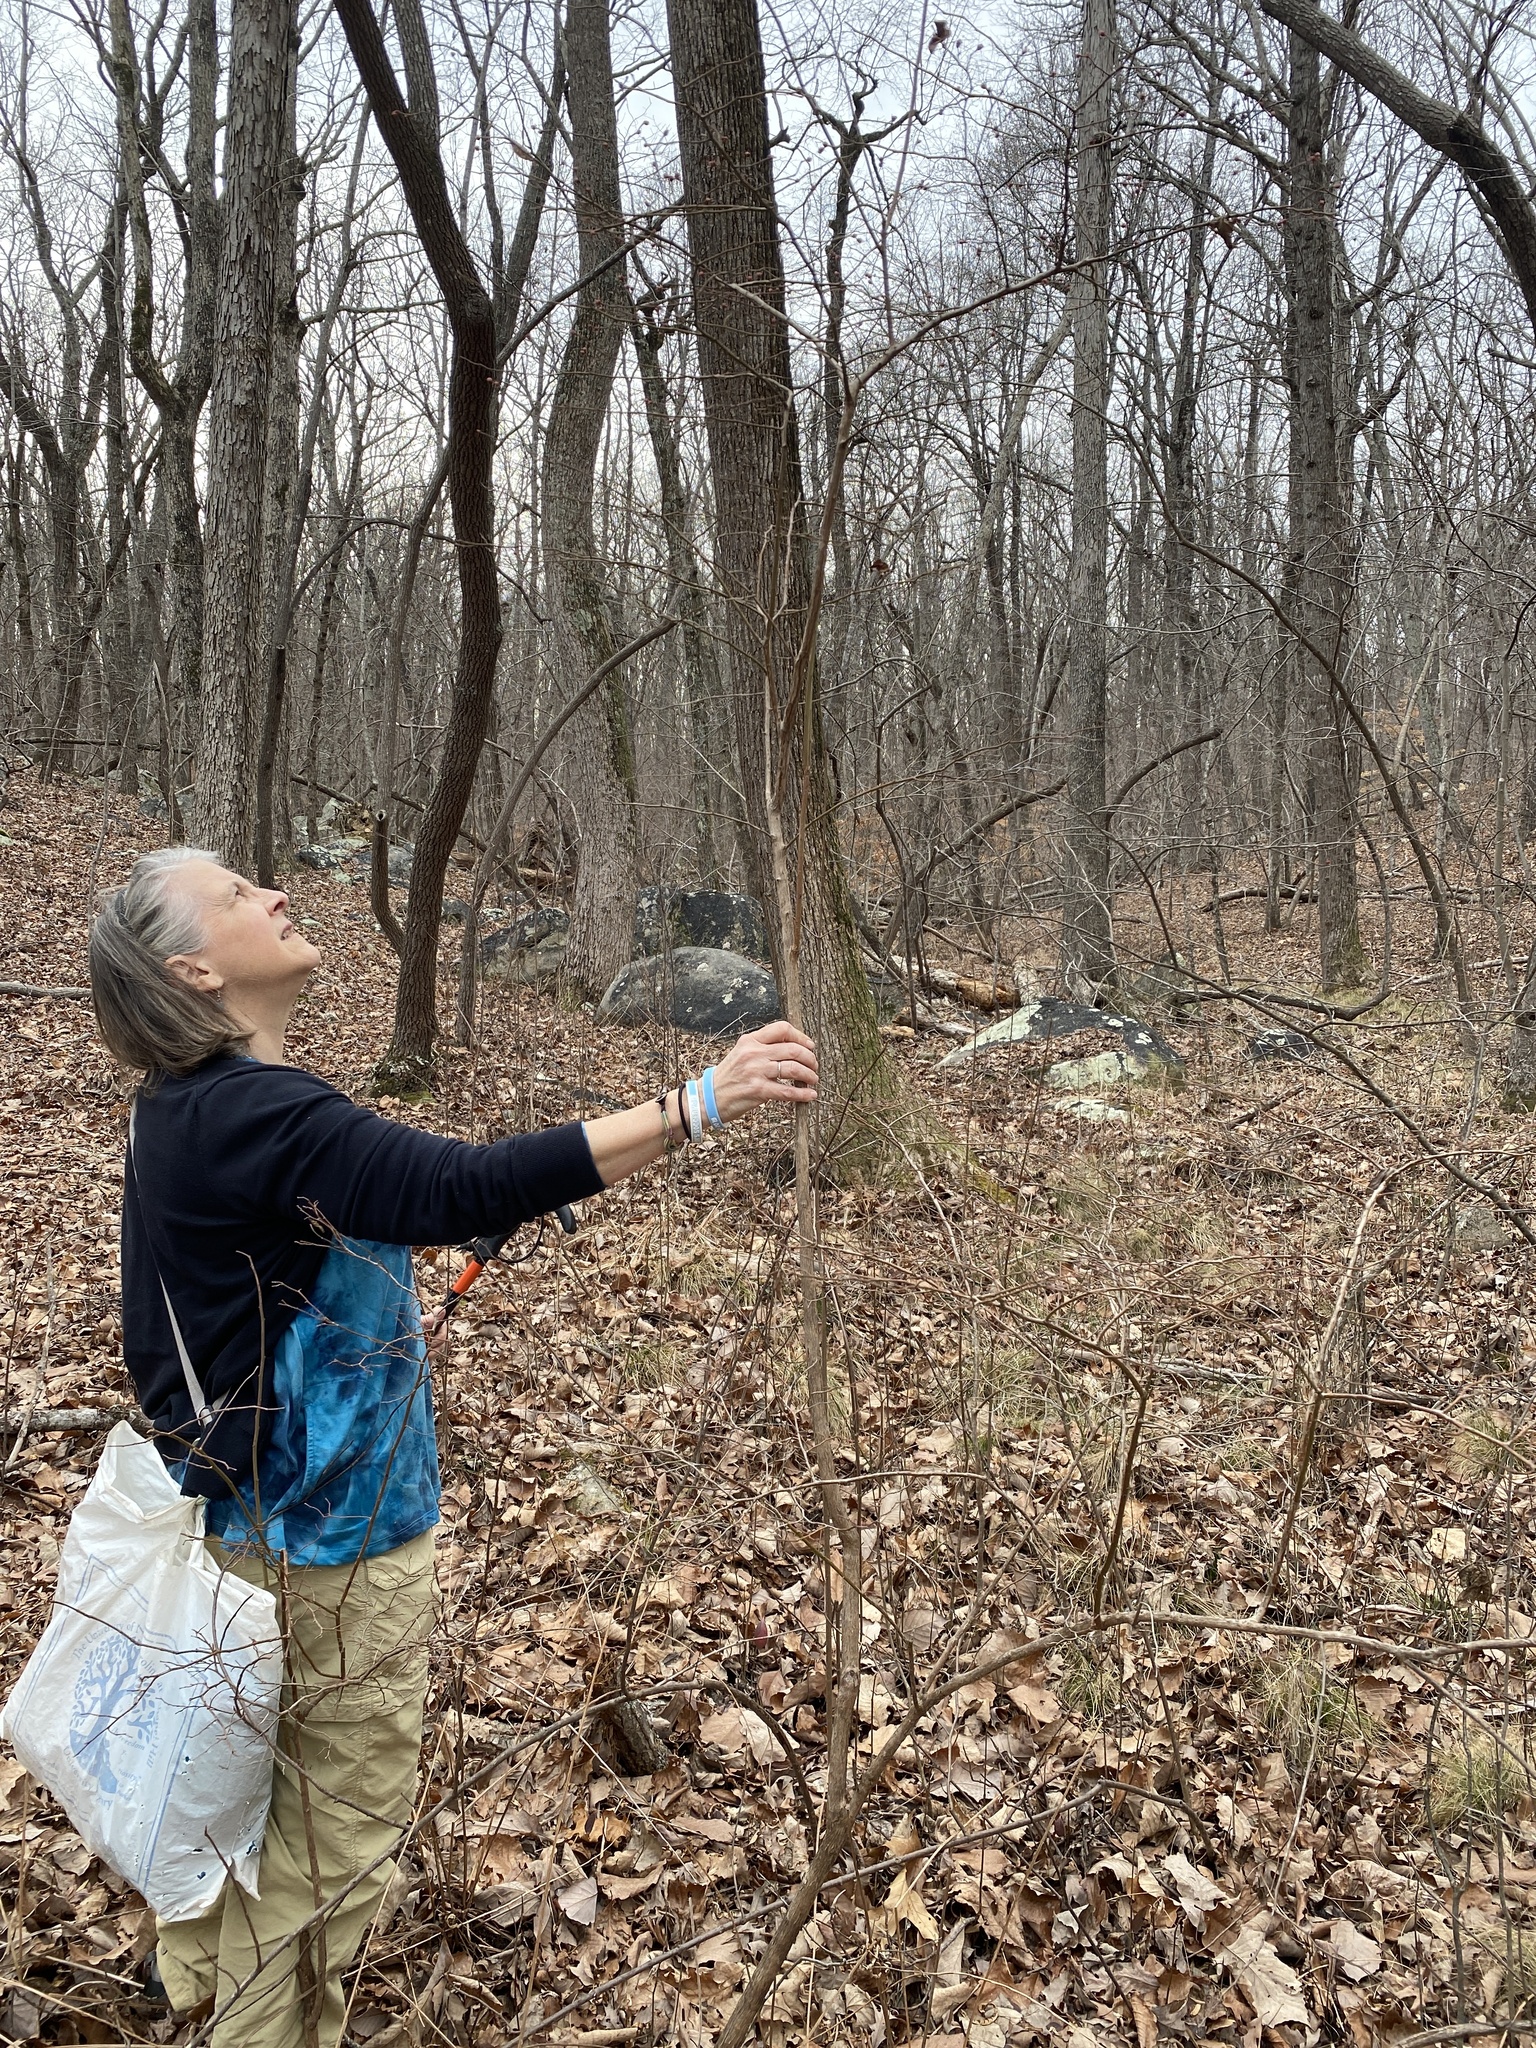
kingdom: Plantae
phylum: Tracheophyta
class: Magnoliopsida
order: Ericales
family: Ericaceae
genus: Vaccinium
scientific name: Vaccinium corymbosum
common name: Blueberry
